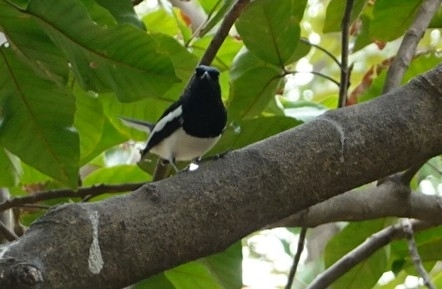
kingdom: Animalia
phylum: Chordata
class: Aves
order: Passeriformes
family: Muscicapidae
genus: Copsychus
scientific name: Copsychus saularis
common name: Oriental magpie-robin
